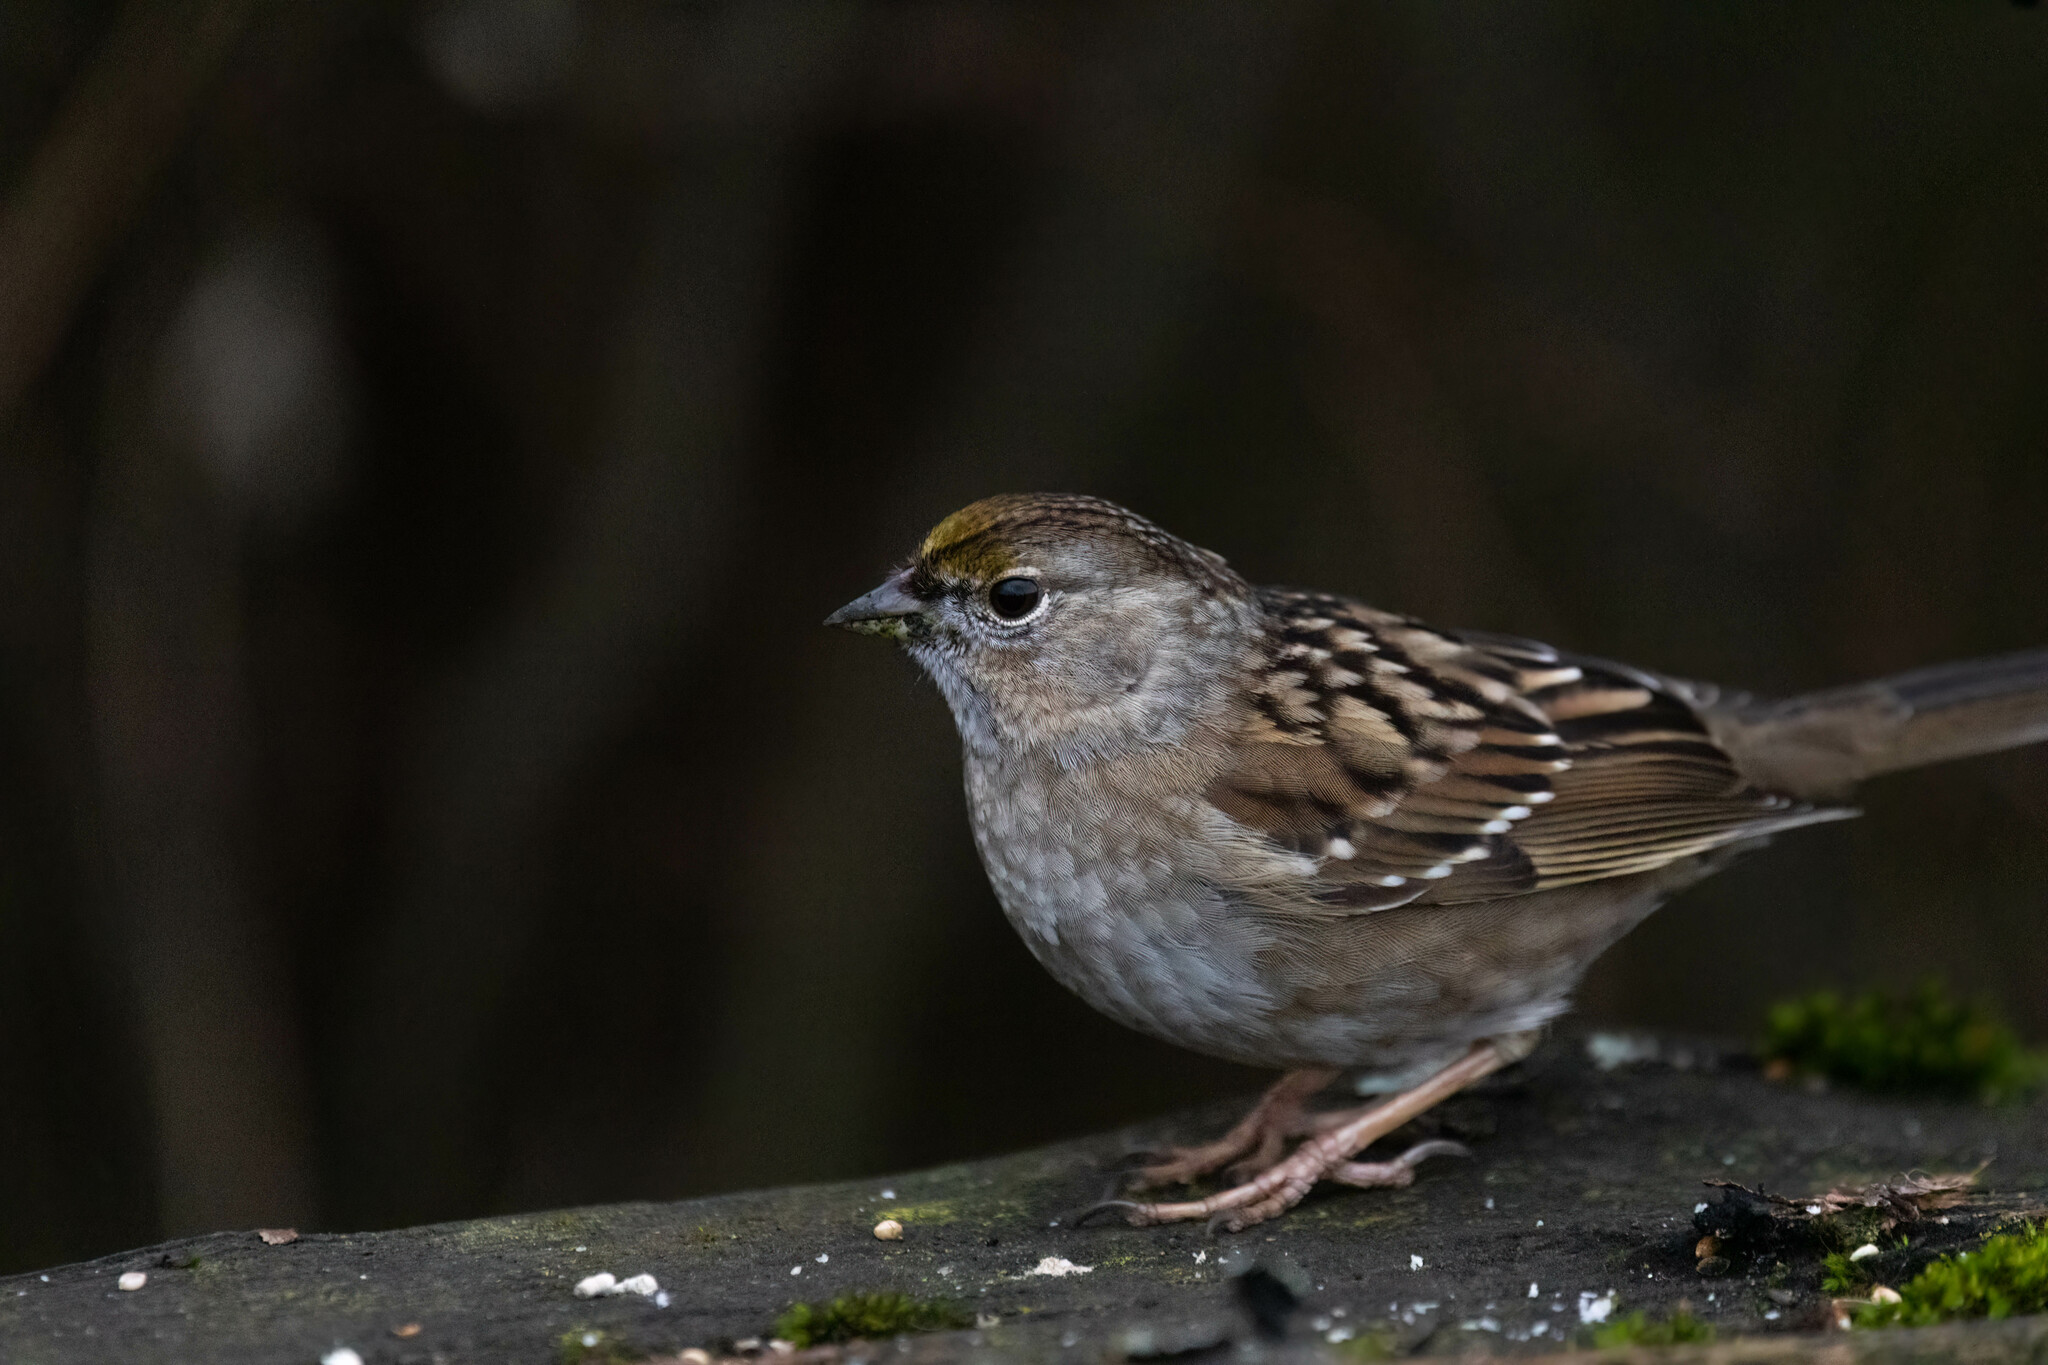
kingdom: Animalia
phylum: Chordata
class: Aves
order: Passeriformes
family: Passerellidae
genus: Zonotrichia
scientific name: Zonotrichia atricapilla
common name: Golden-crowned sparrow
